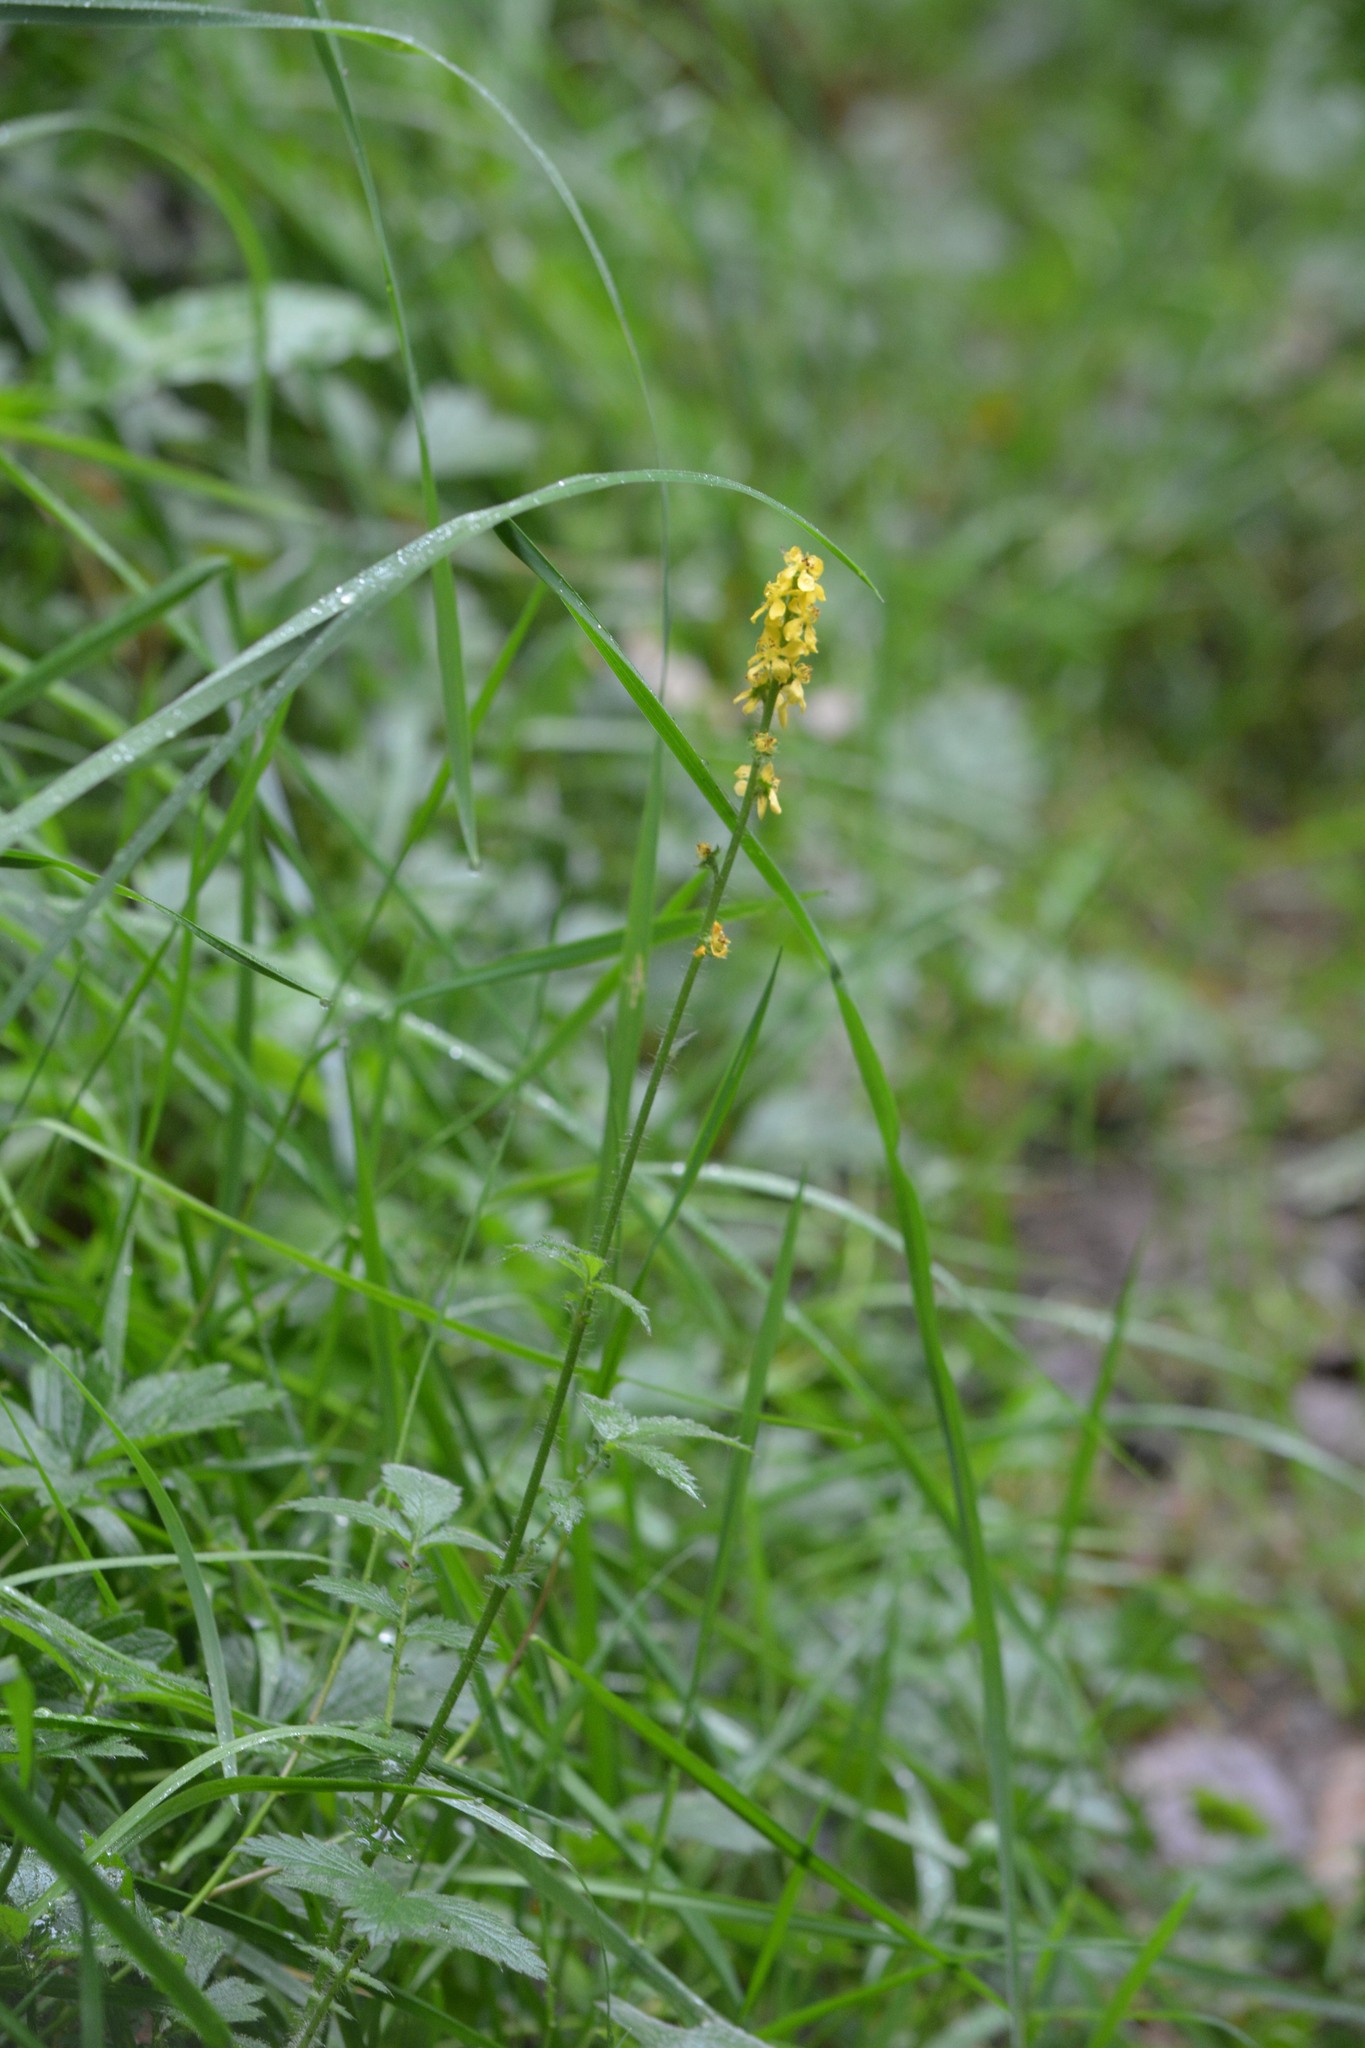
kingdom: Plantae
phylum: Tracheophyta
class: Magnoliopsida
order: Rosales
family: Rosaceae
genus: Agrimonia
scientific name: Agrimonia eupatoria
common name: Agrimony
